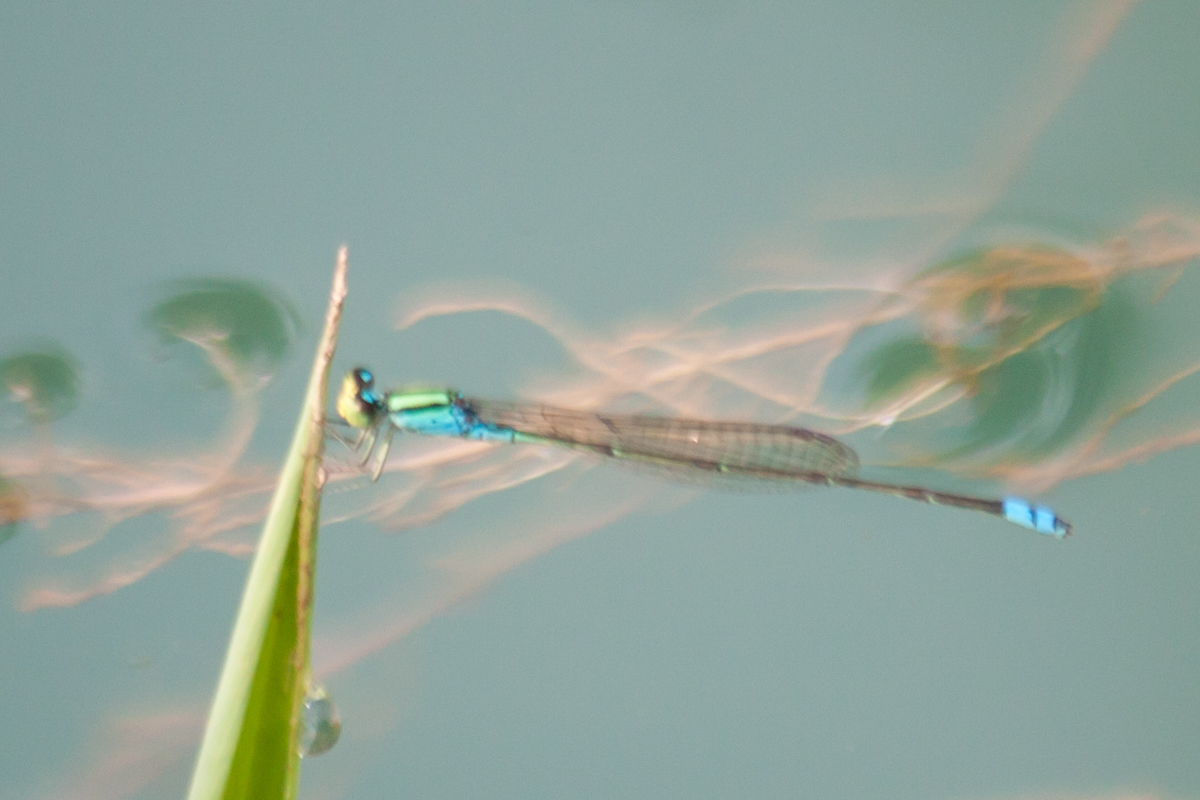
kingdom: Animalia
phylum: Arthropoda
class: Insecta
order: Odonata
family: Coenagrionidae
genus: Pseudagrion
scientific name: Pseudagrion williamsoni
